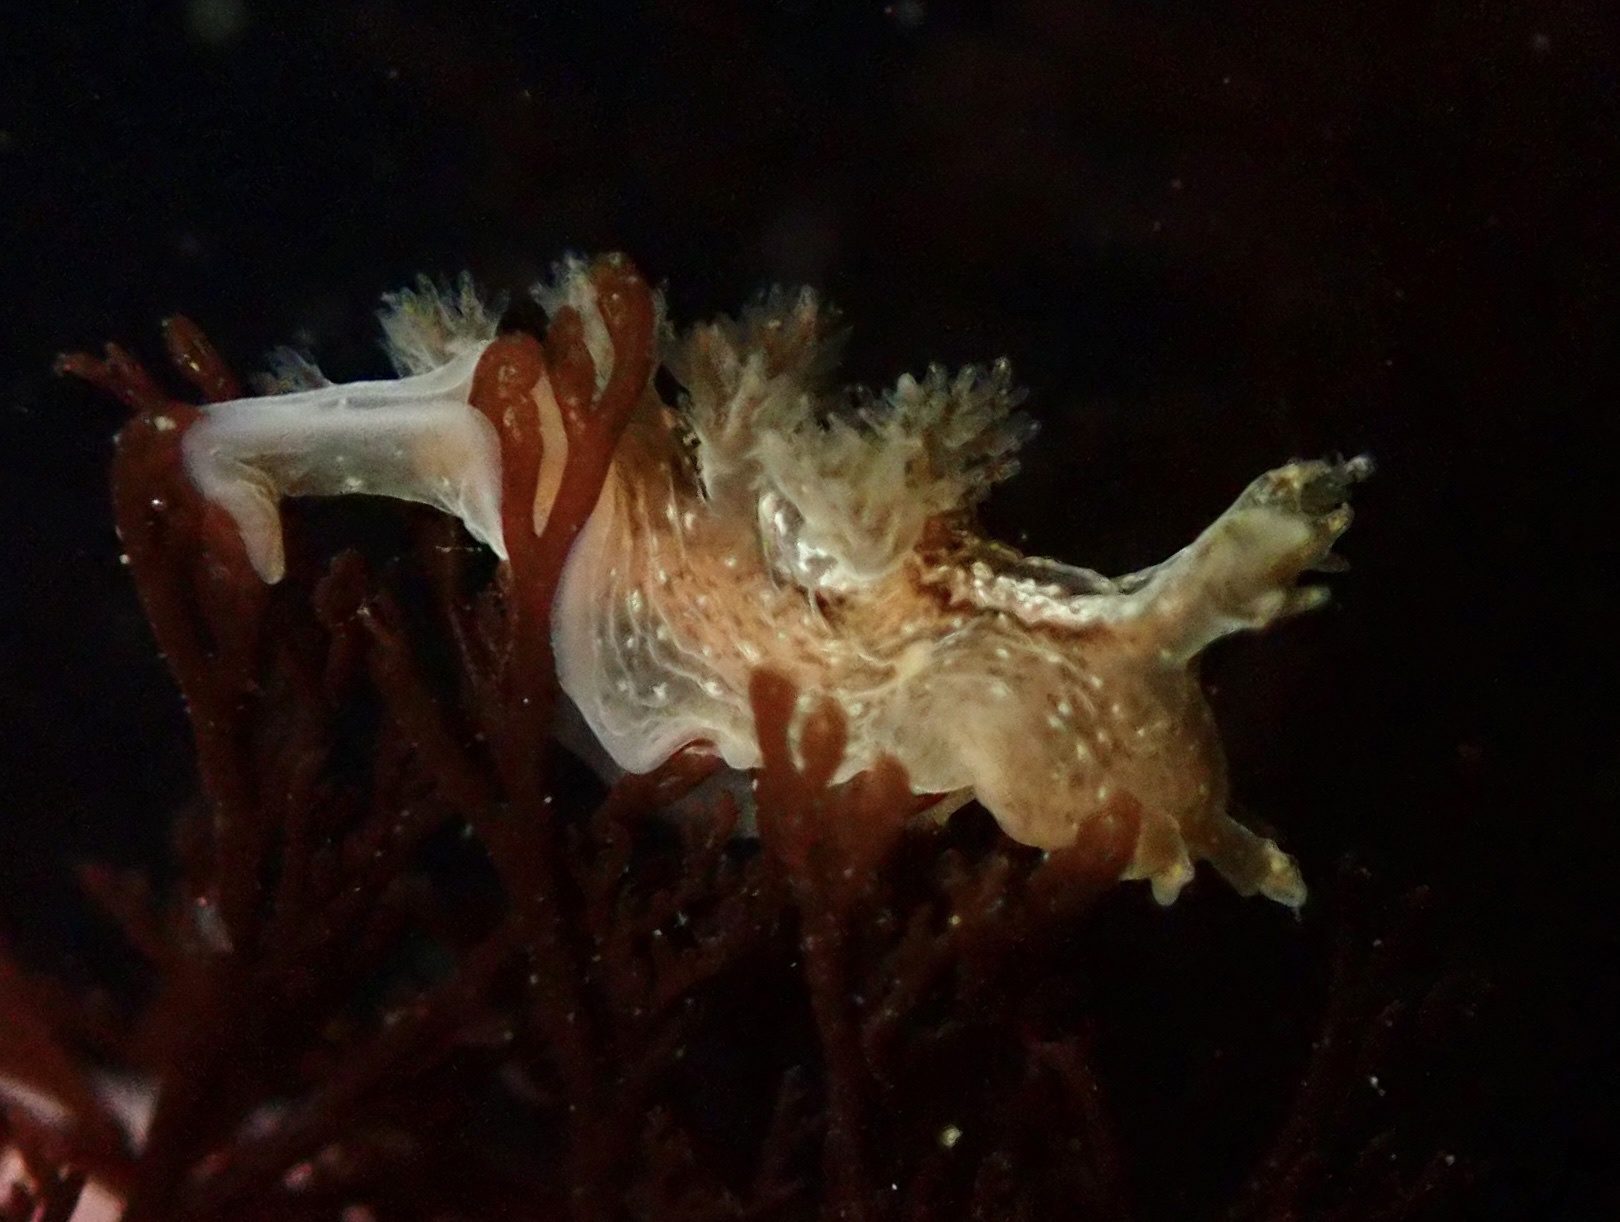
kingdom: Animalia
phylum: Mollusca
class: Gastropoda
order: Nudibranchia
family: Dendronotidae
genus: Dendronotus
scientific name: Dendronotus subramosus
